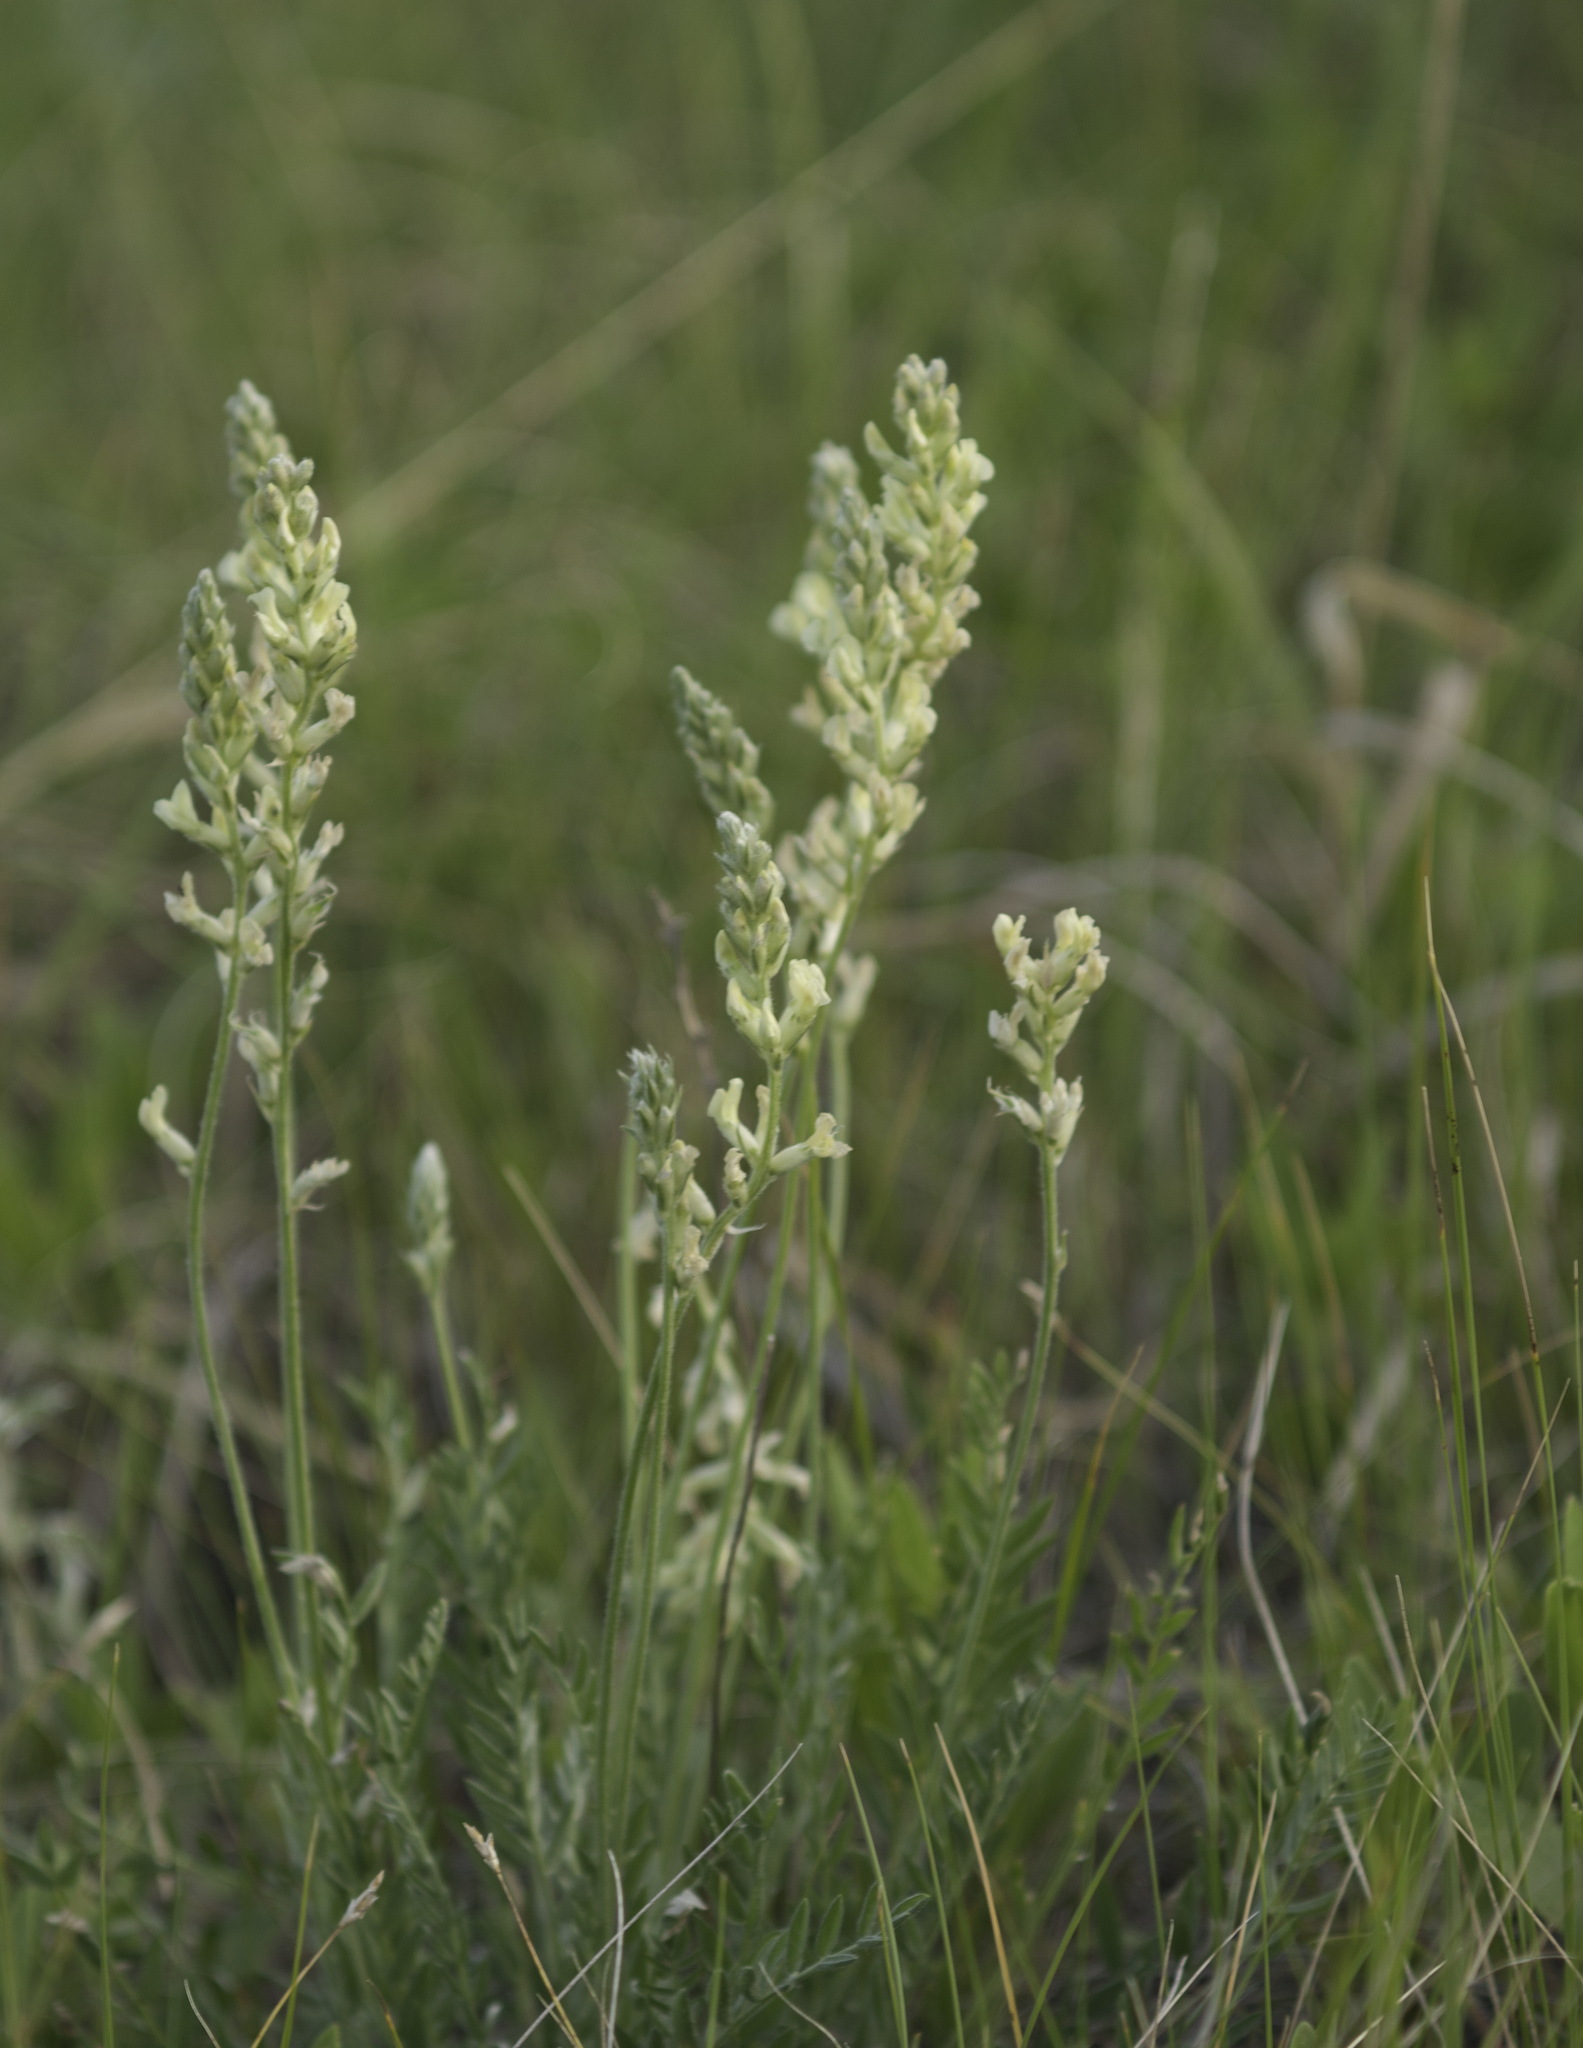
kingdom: Plantae
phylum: Tracheophyta
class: Magnoliopsida
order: Fabales
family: Fabaceae
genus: Oxytropis
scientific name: Oxytropis campestris
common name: Field locoweed
